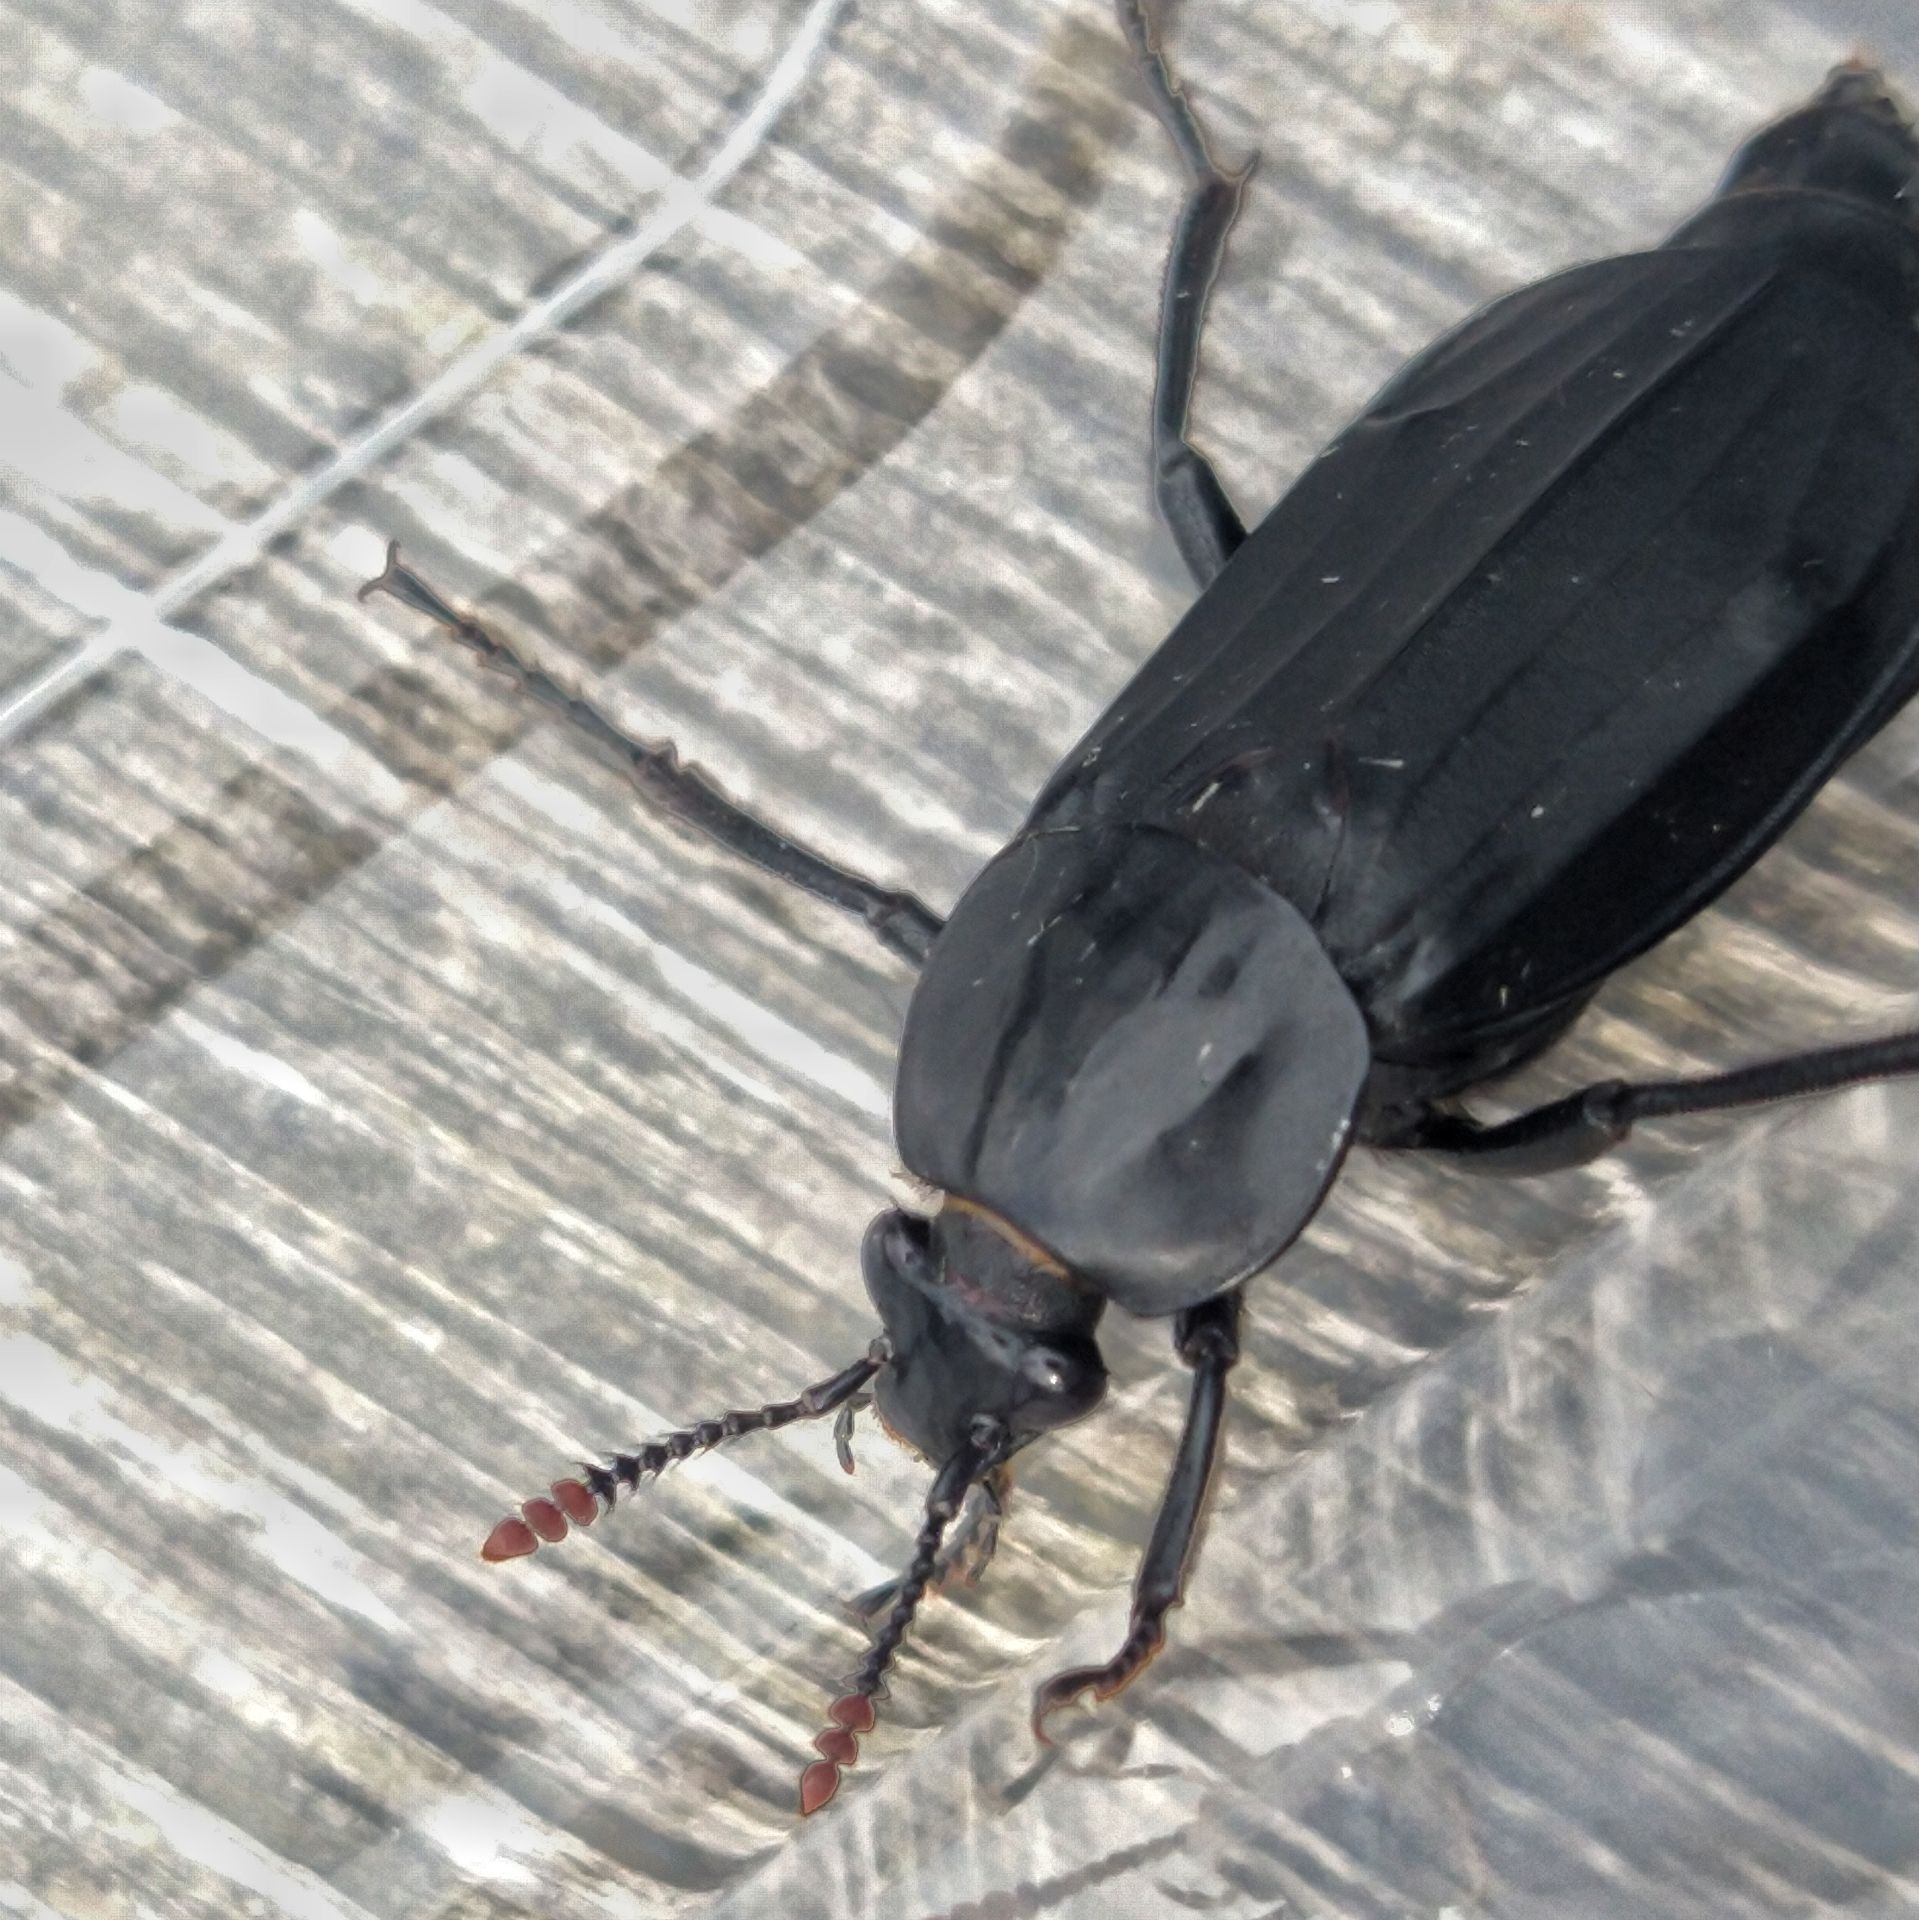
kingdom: Animalia
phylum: Arthropoda
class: Insecta
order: Coleoptera
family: Staphylinidae
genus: Necrodes
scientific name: Necrodes littoralis
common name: Shore sexton beetle
